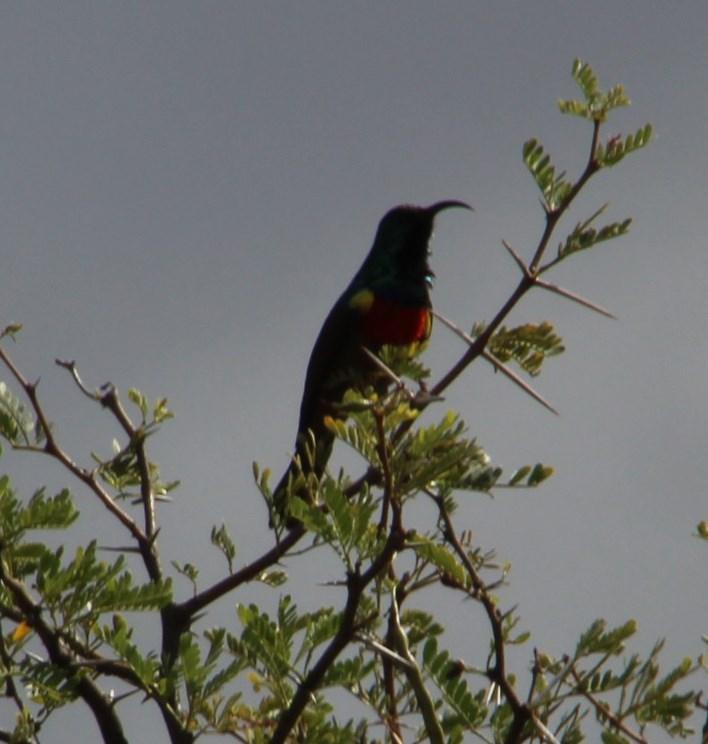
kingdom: Animalia
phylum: Chordata
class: Aves
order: Passeriformes
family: Nectariniidae
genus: Cinnyris
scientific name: Cinnyris afer
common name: Greater double-collared sunbird
